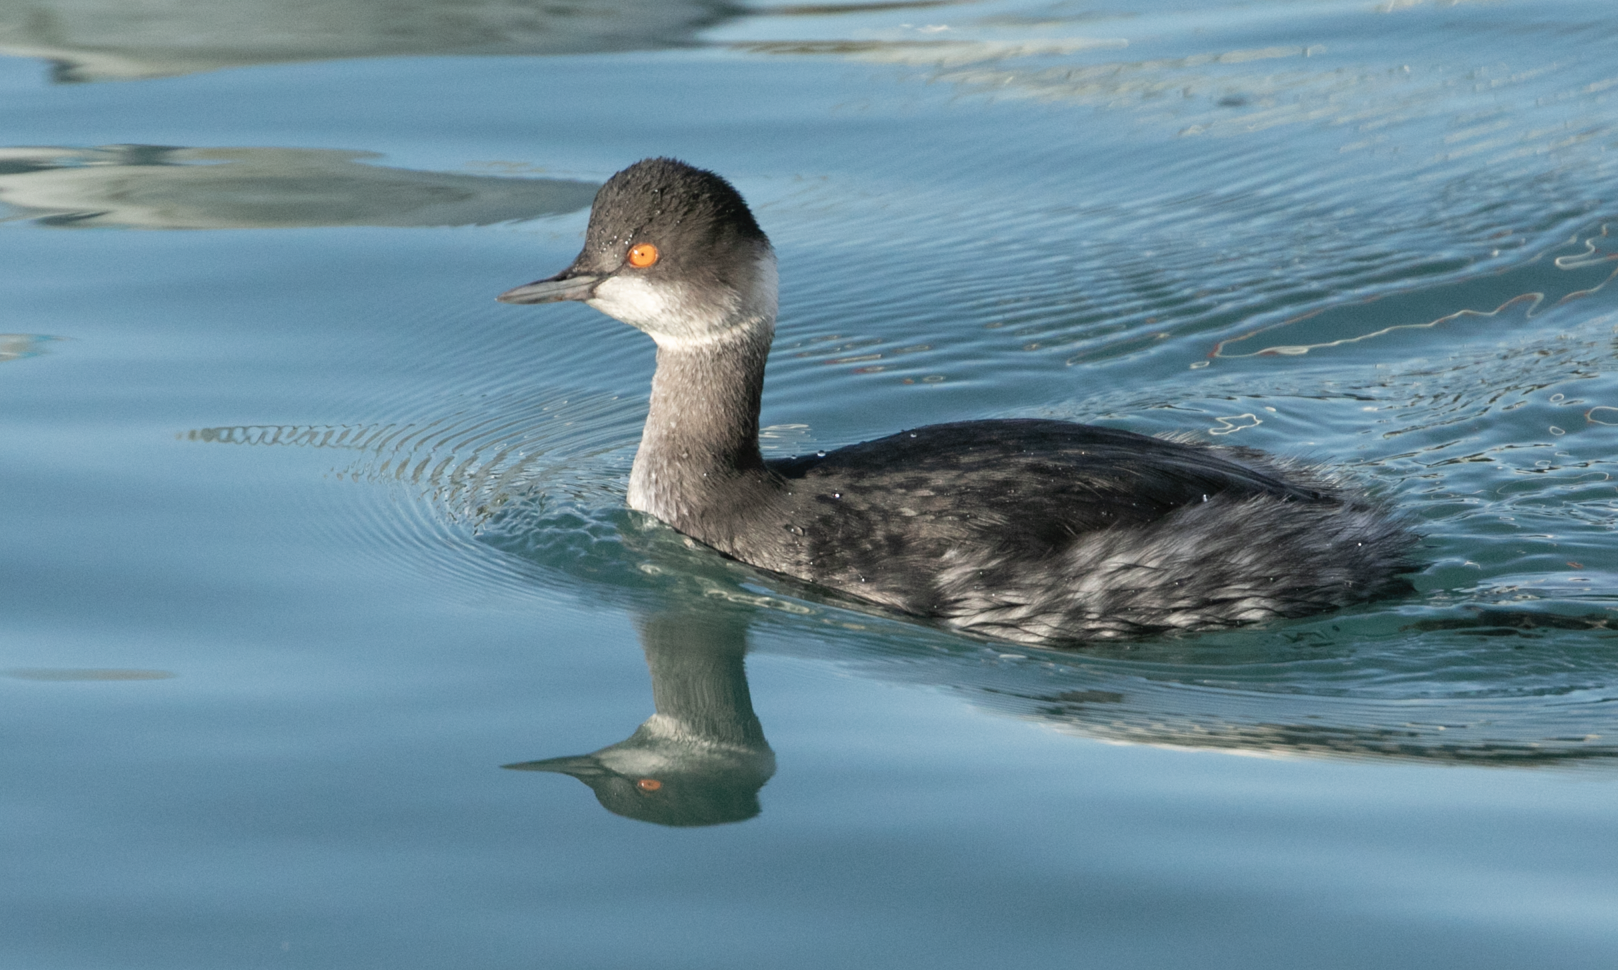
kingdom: Animalia
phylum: Chordata
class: Aves
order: Podicipediformes
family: Podicipedidae
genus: Podiceps
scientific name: Podiceps nigricollis
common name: Black-necked grebe
